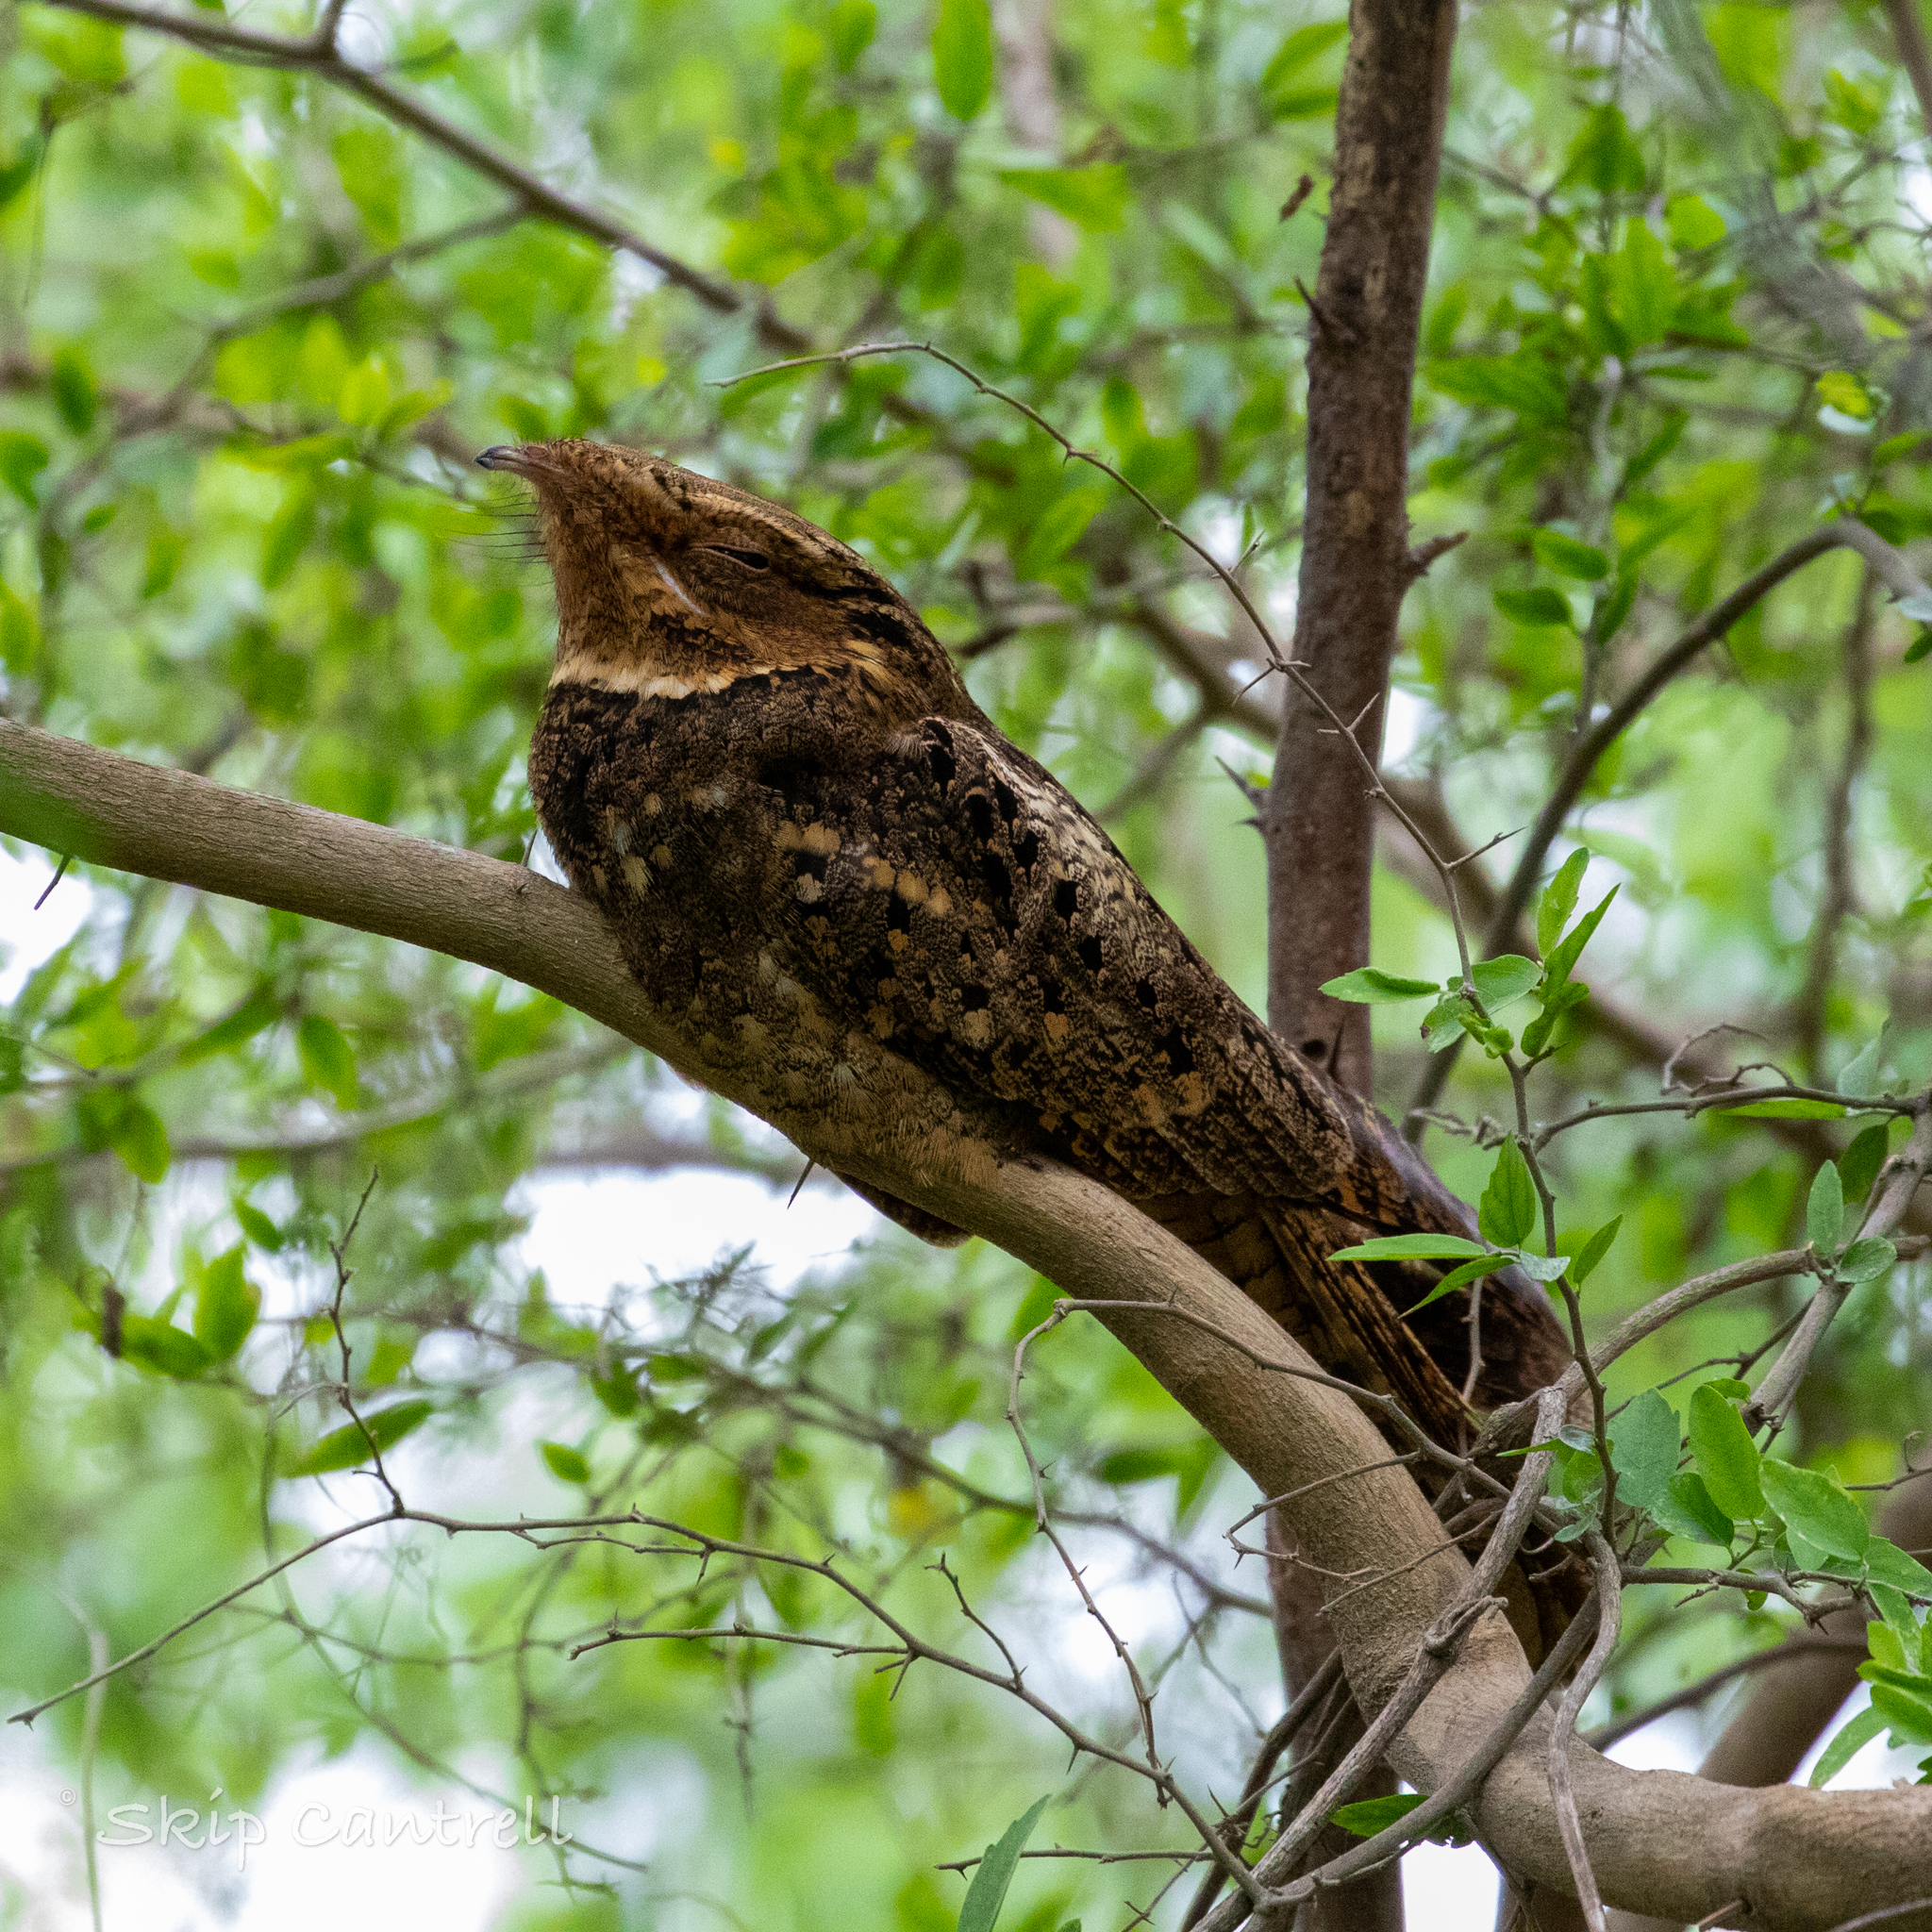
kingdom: Animalia
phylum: Chordata
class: Aves
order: Caprimulgiformes
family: Caprimulgidae
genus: Antrostomus
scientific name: Antrostomus carolinensis
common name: Chuck-will's-widow
